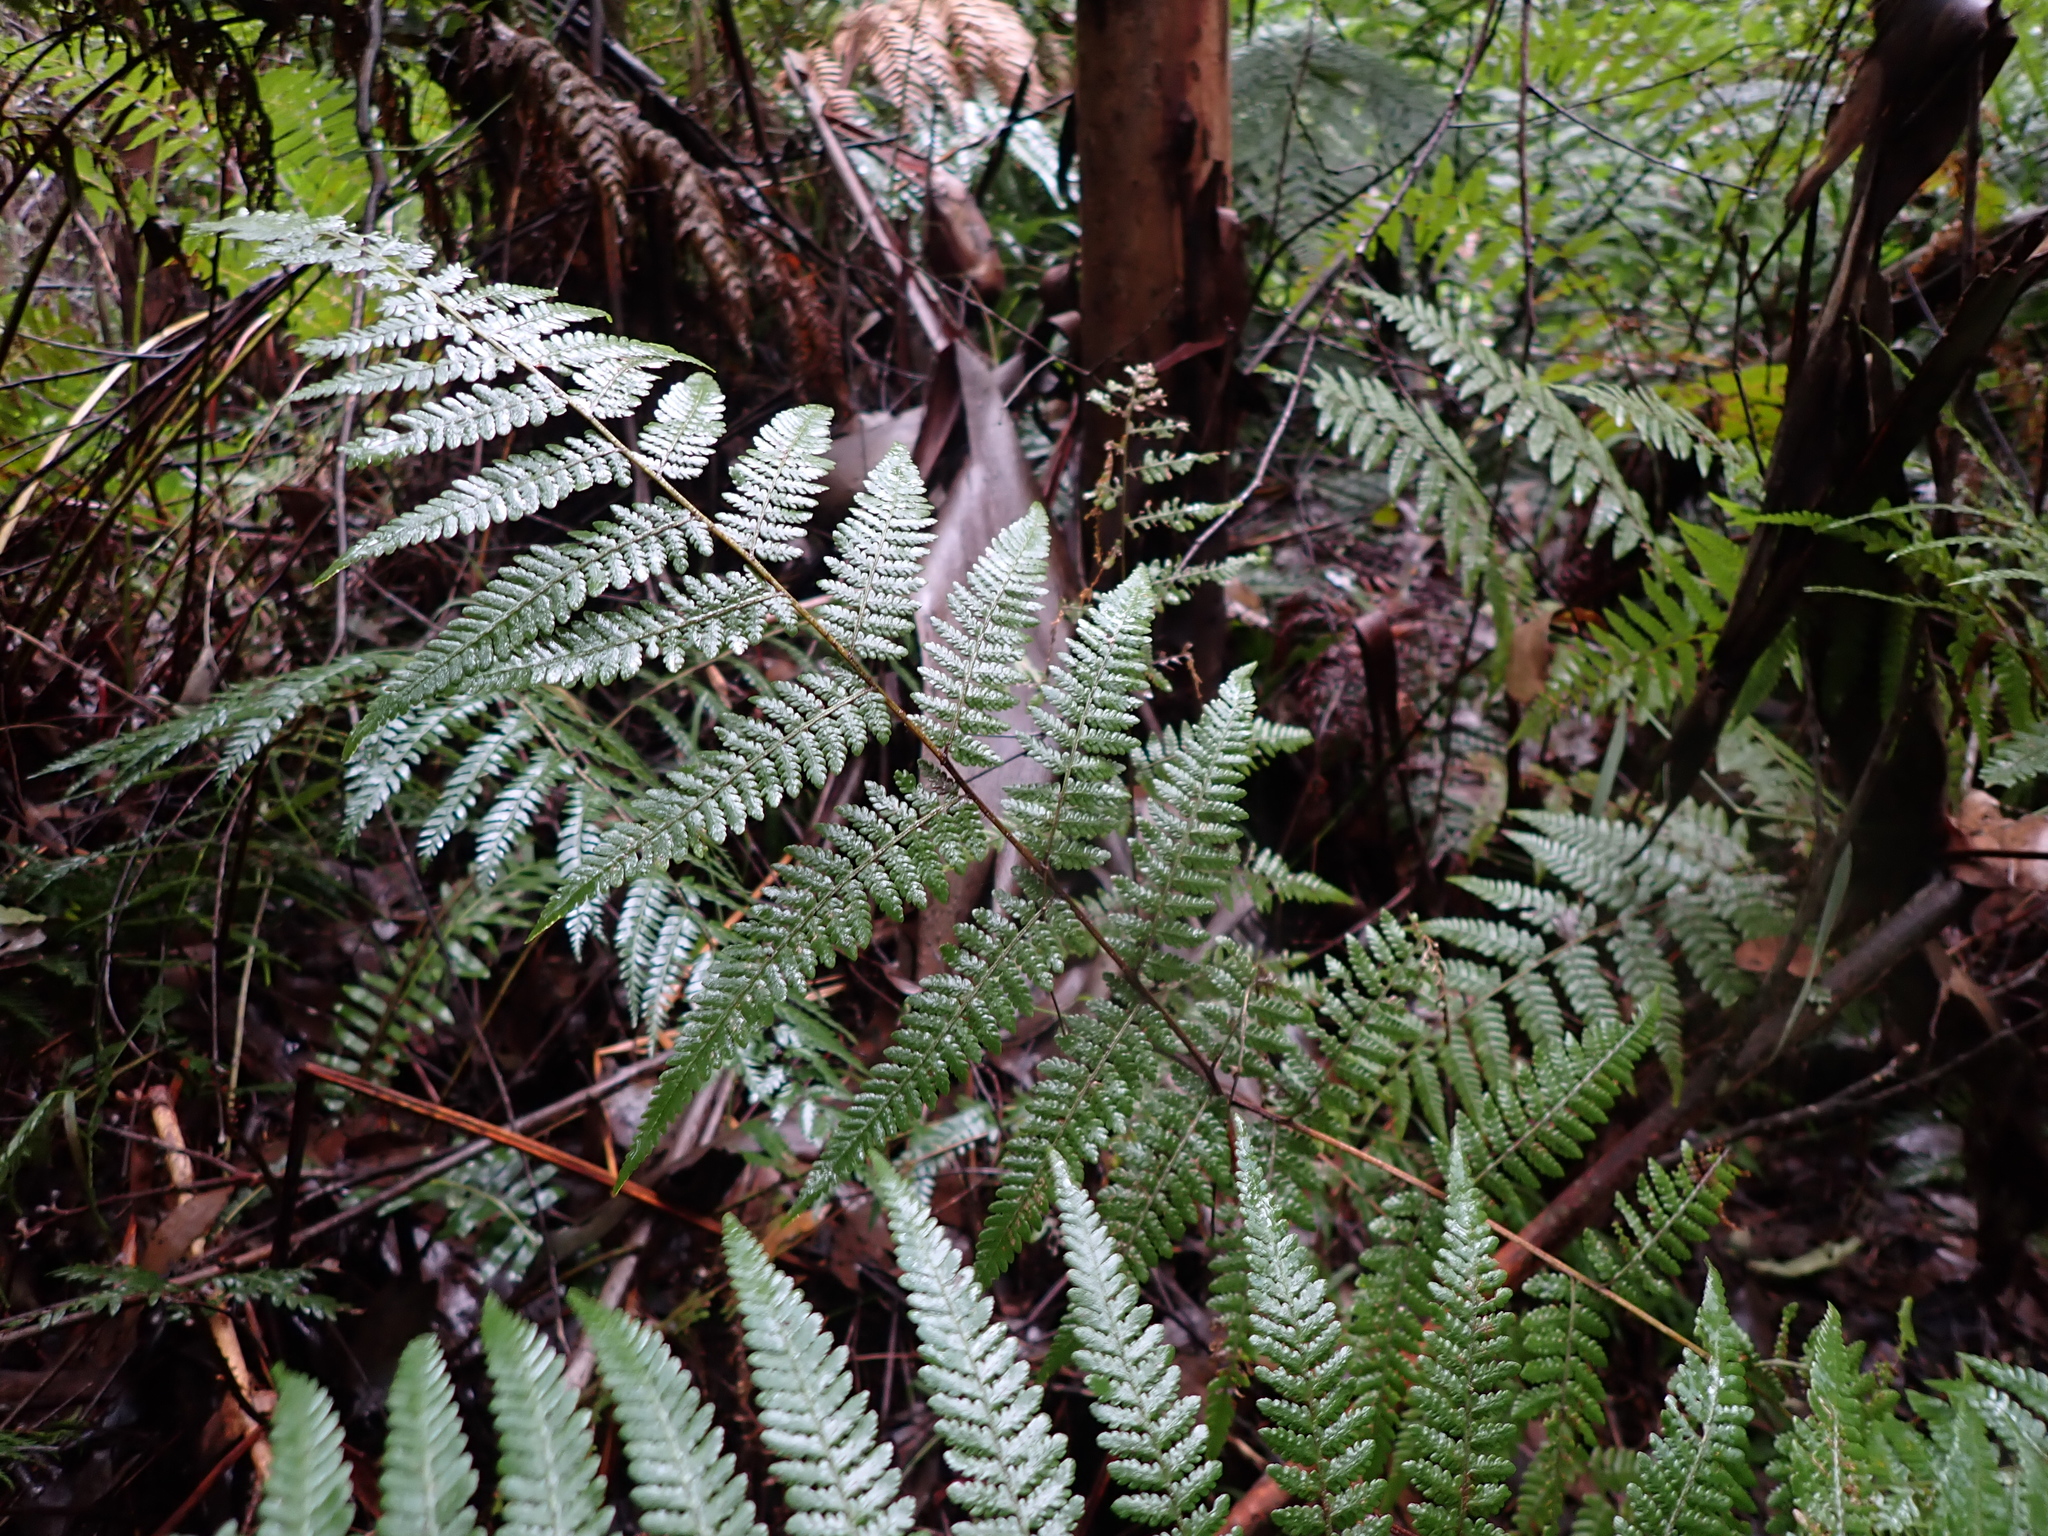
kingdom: Plantae
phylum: Tracheophyta
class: Polypodiopsida
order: Polypodiales
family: Dennstaedtiaceae
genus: Hypolepis
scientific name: Hypolepis rugosula
